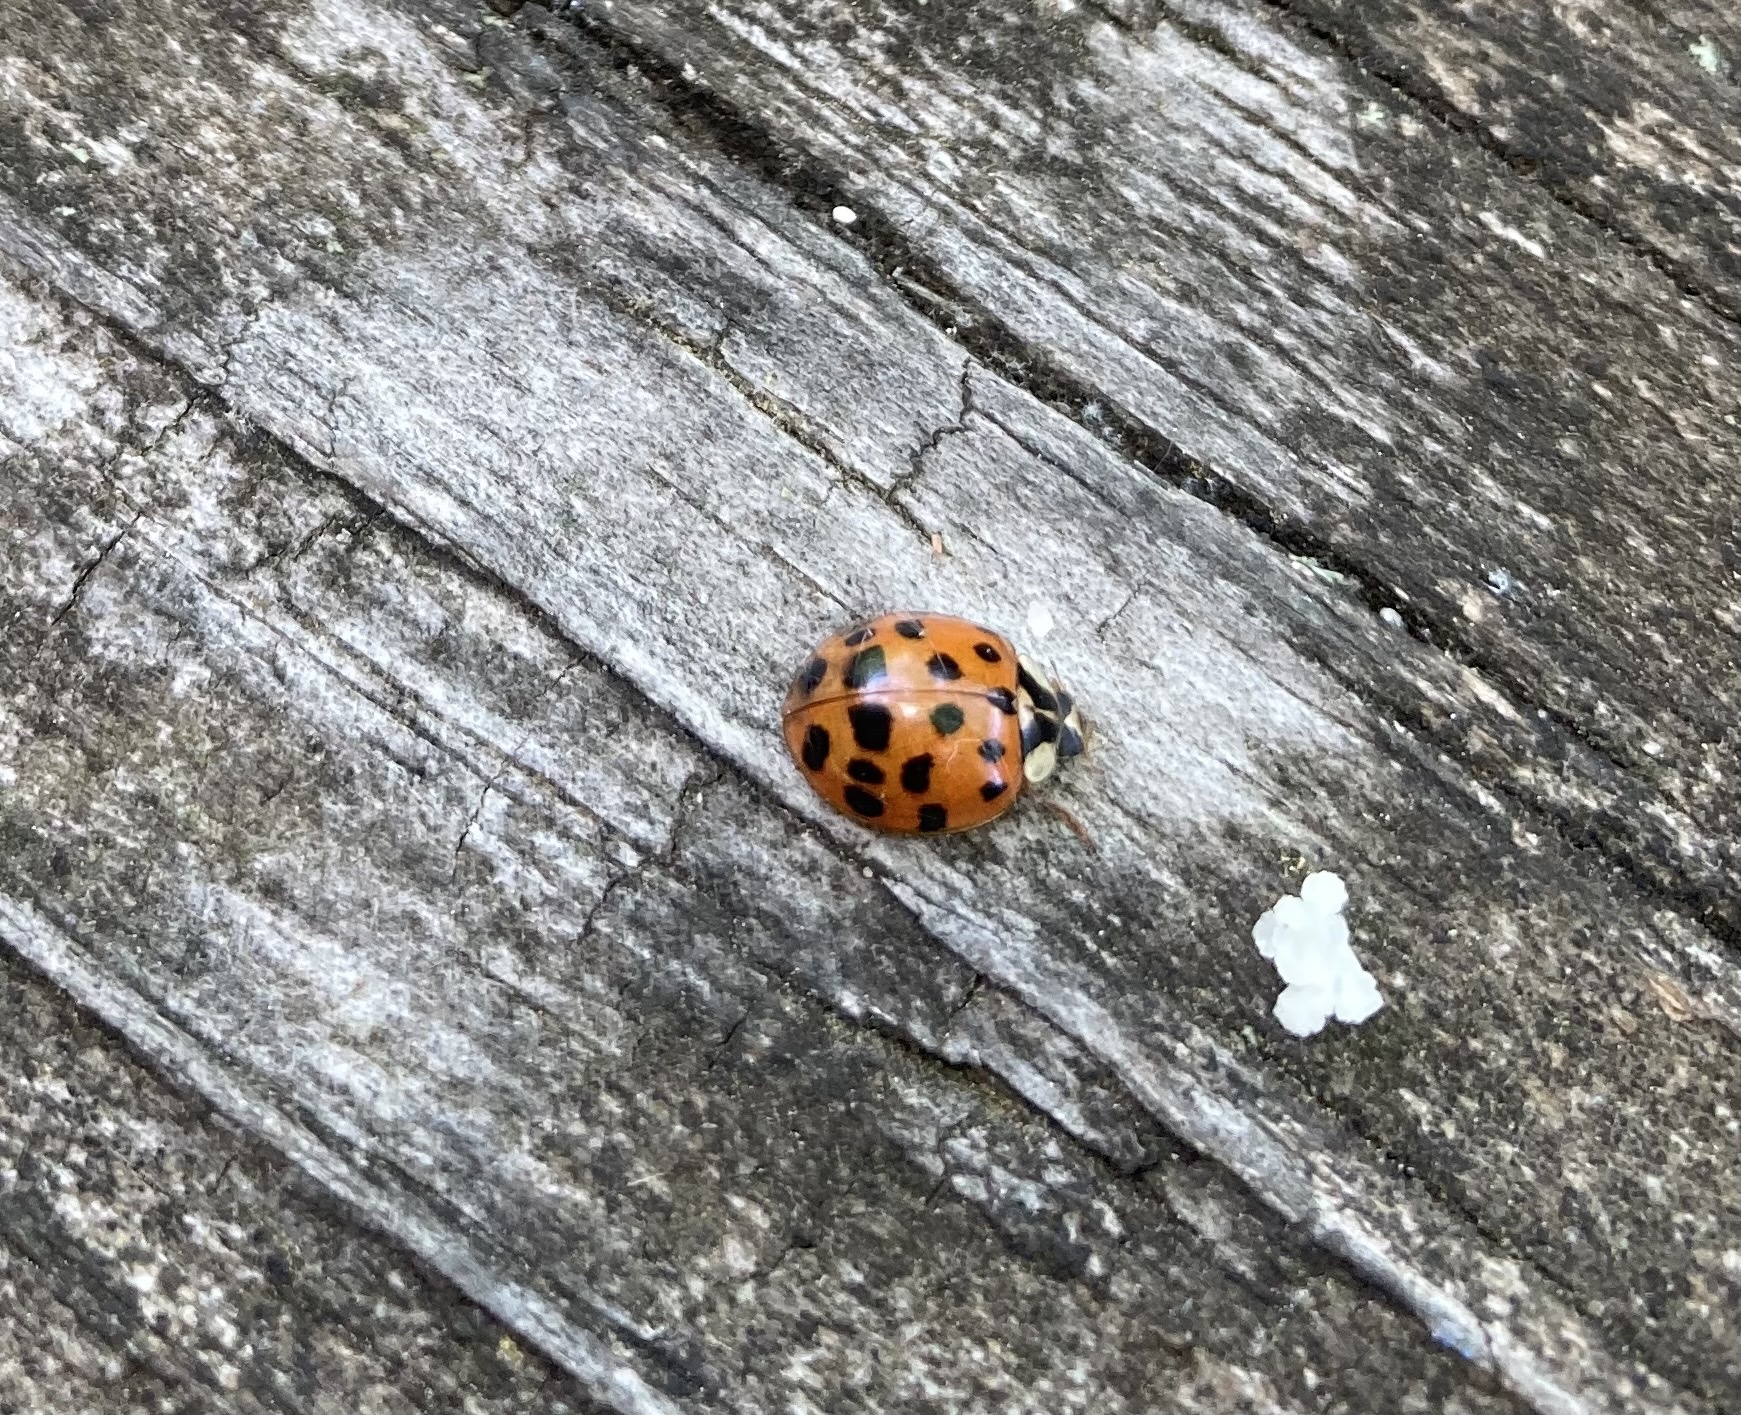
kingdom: Animalia
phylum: Arthropoda
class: Insecta
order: Coleoptera
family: Coccinellidae
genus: Harmonia
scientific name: Harmonia axyridis
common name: Harlequin ladybird
